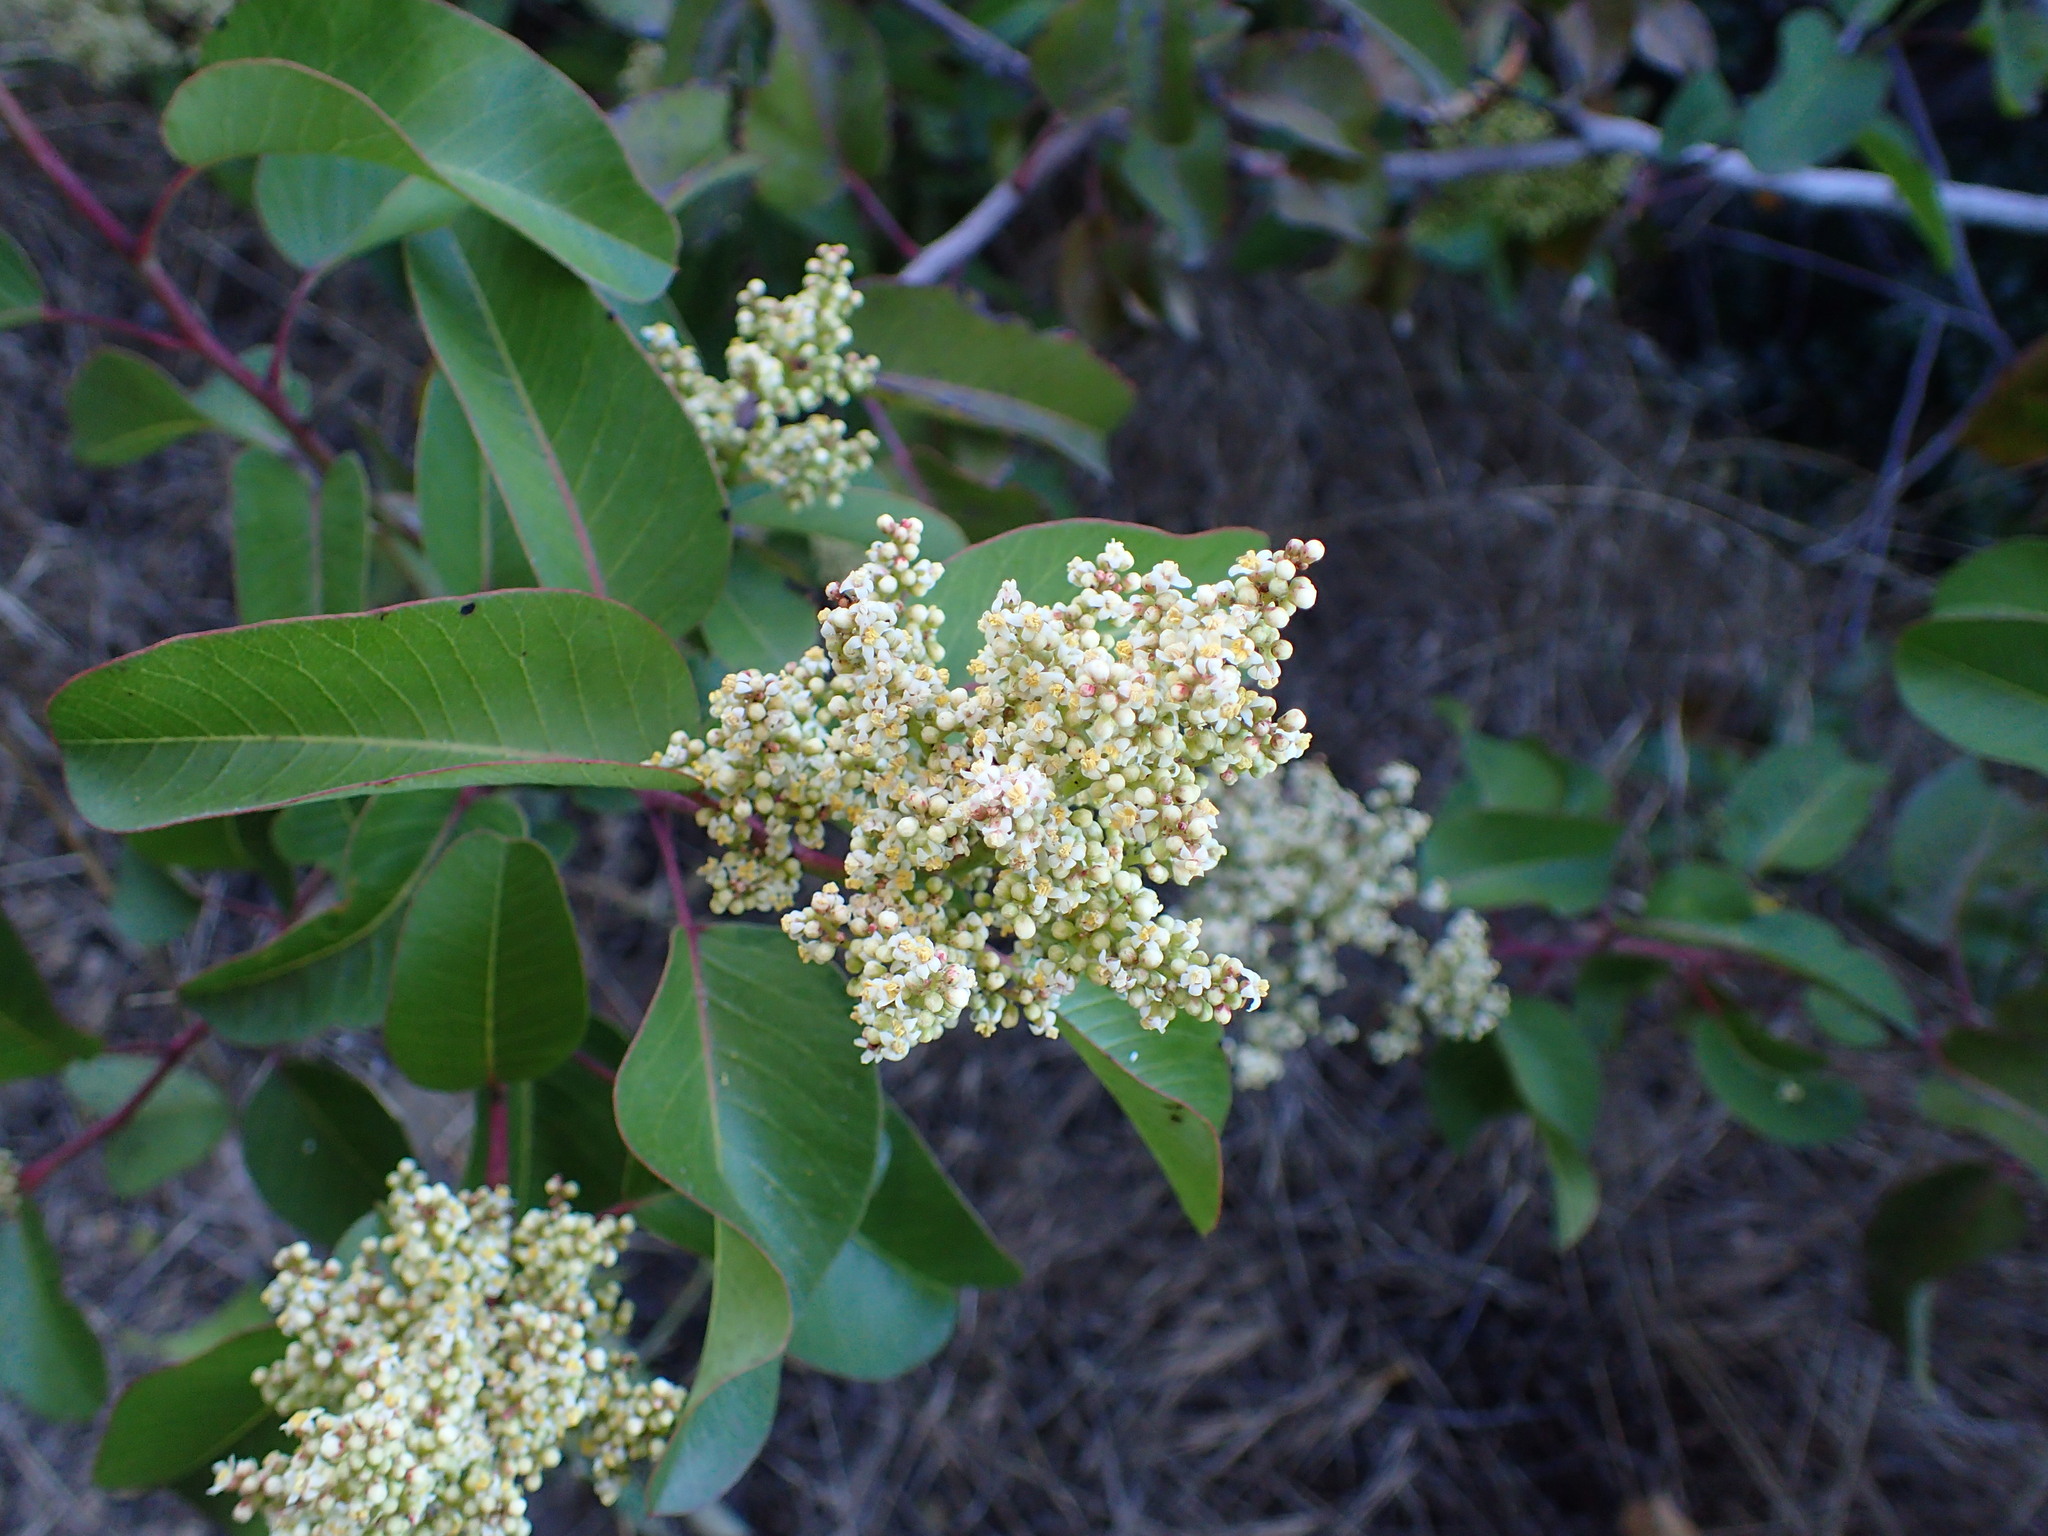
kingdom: Plantae
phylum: Tracheophyta
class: Magnoliopsida
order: Sapindales
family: Anacardiaceae
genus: Malosma
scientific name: Malosma laurina
